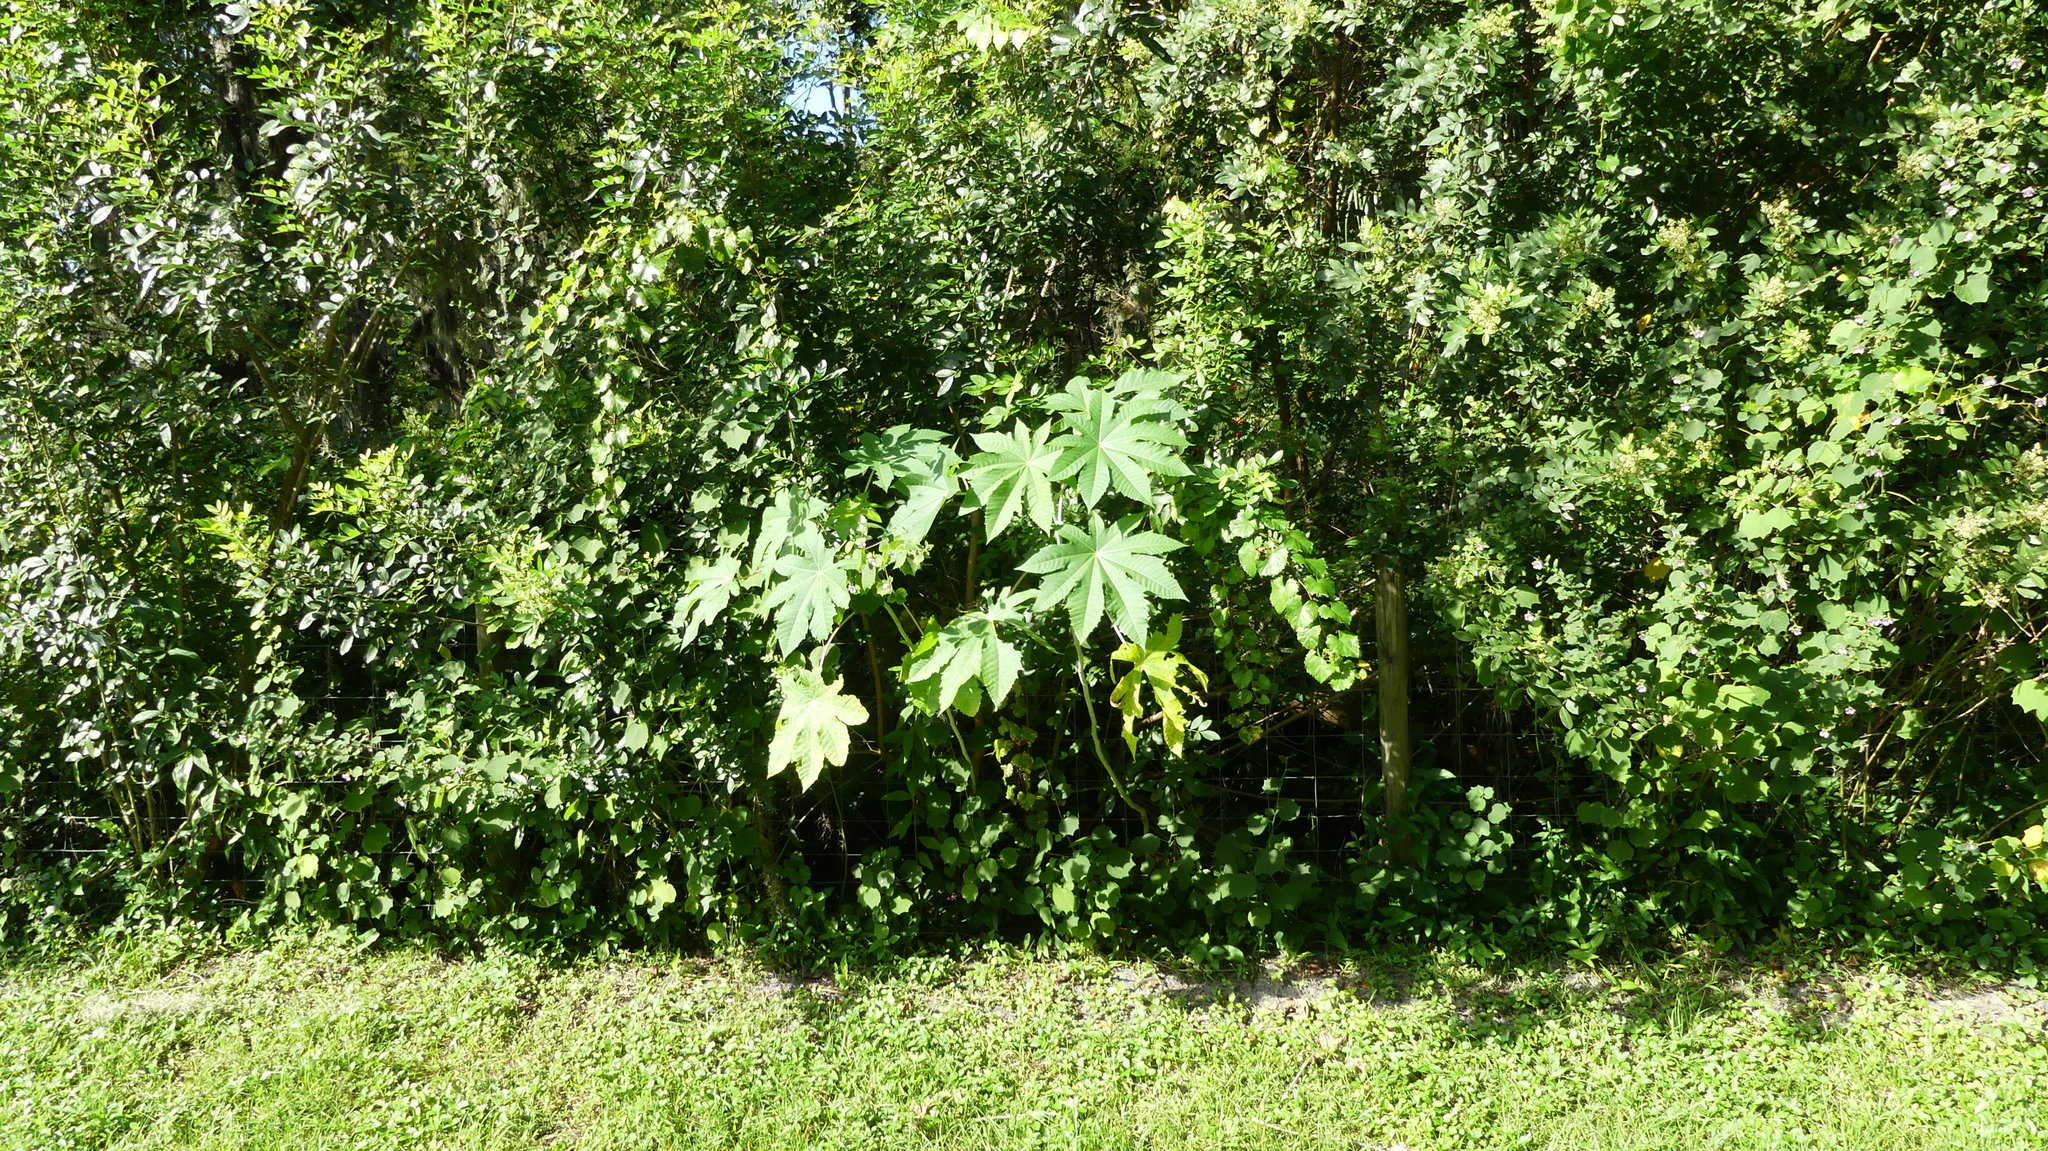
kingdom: Plantae
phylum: Tracheophyta
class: Magnoliopsida
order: Malpighiales
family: Euphorbiaceae
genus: Ricinus
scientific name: Ricinus communis
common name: Castor-oil-plant
